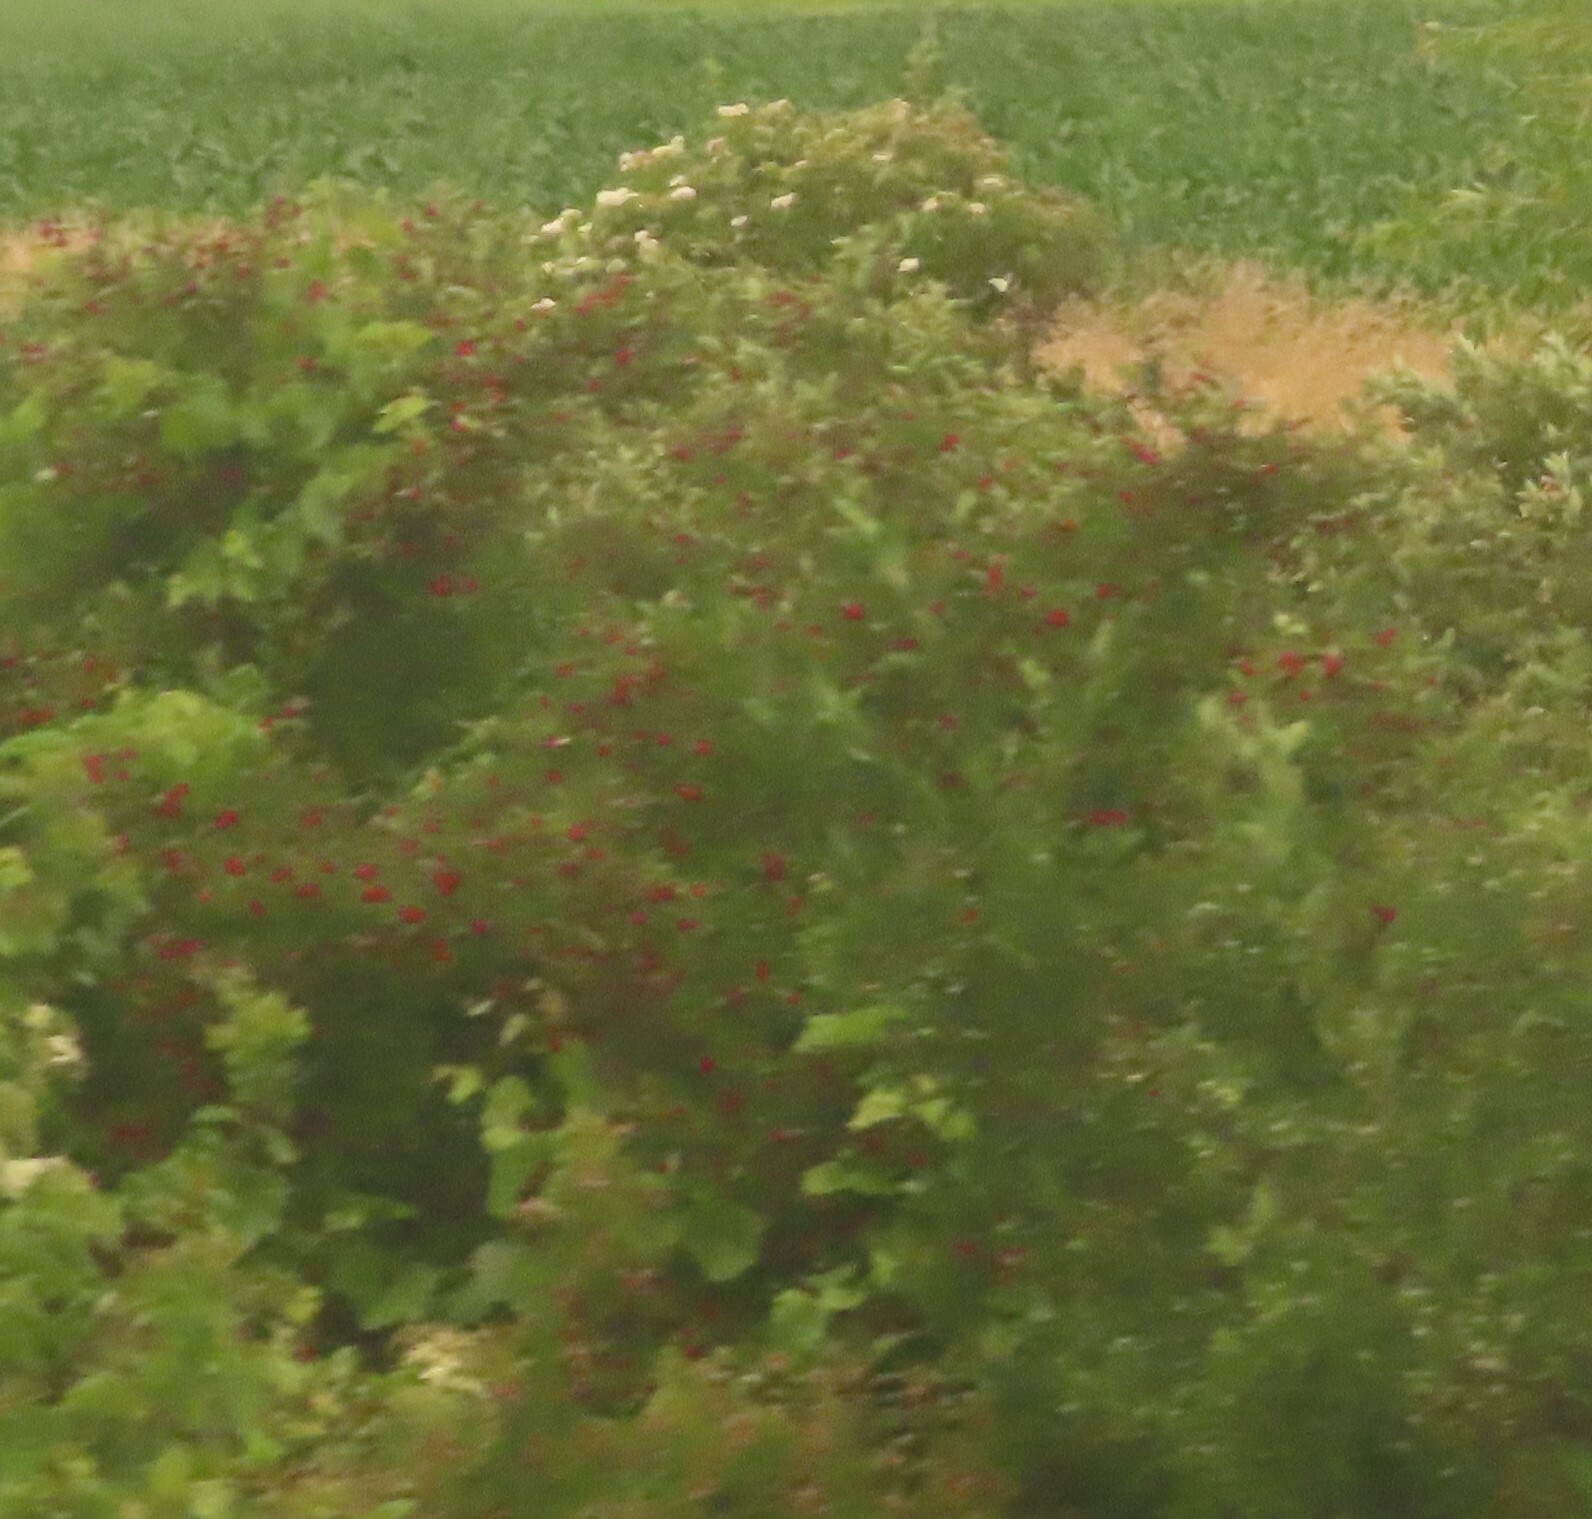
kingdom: Plantae
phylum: Tracheophyta
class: Magnoliopsida
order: Dipsacales
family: Viburnaceae
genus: Viburnum
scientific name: Viburnum opulus
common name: Guelder-rose
